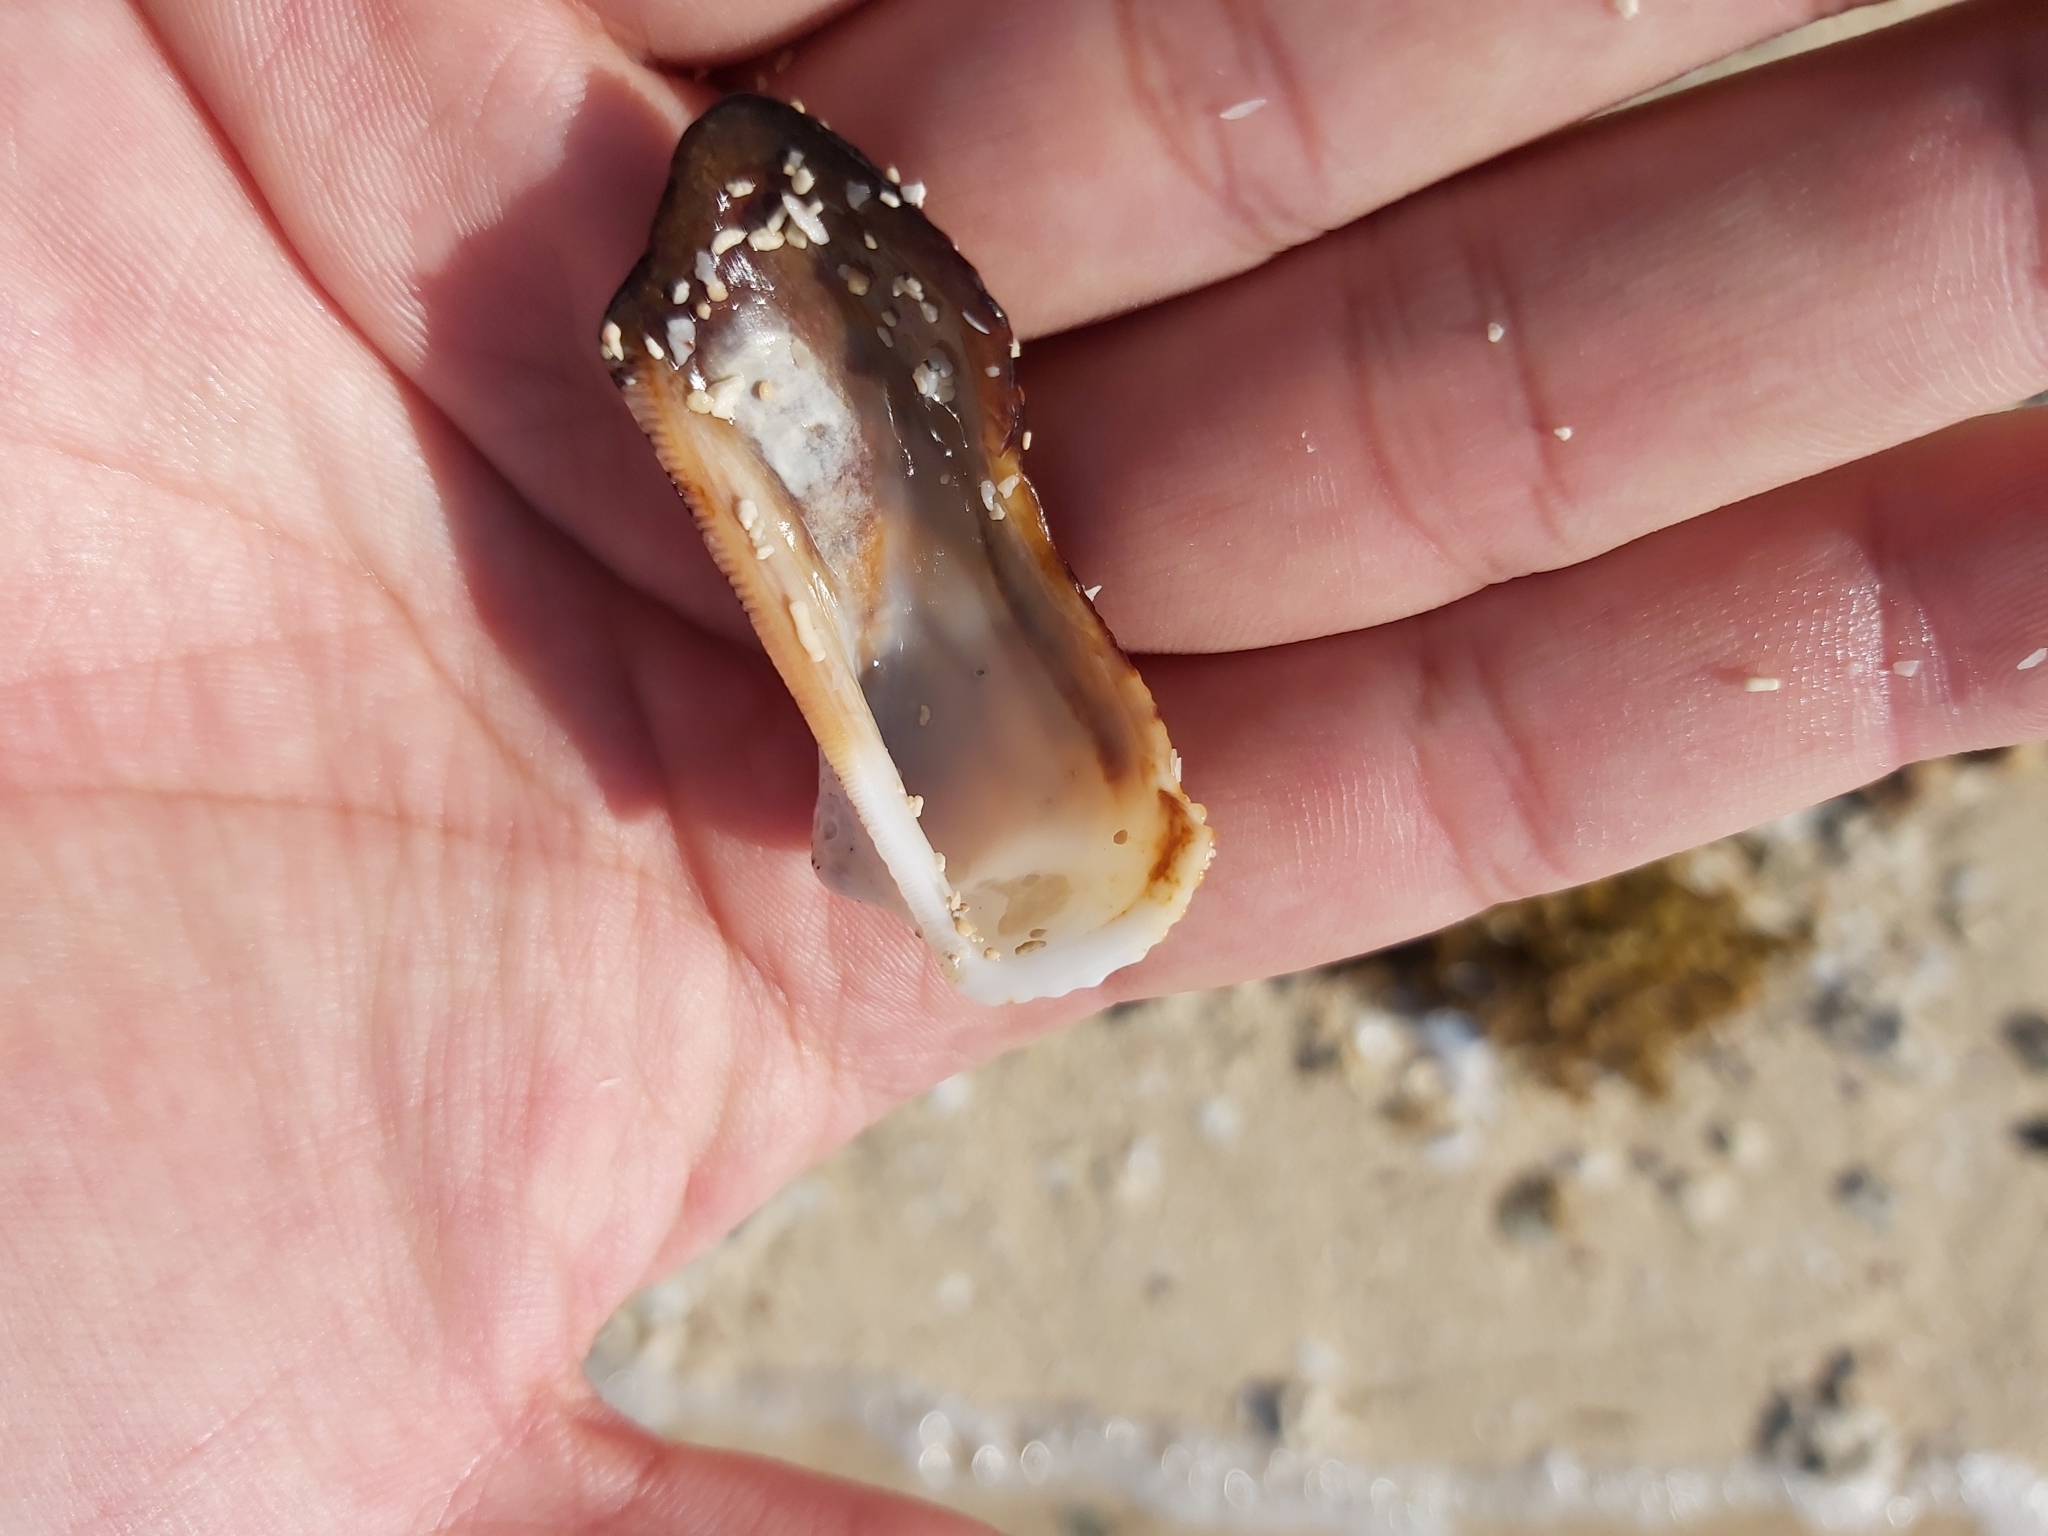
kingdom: Animalia
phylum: Mollusca
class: Bivalvia
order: Arcida
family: Arcidae
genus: Lamarcka
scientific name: Lamarcka ventricosa
